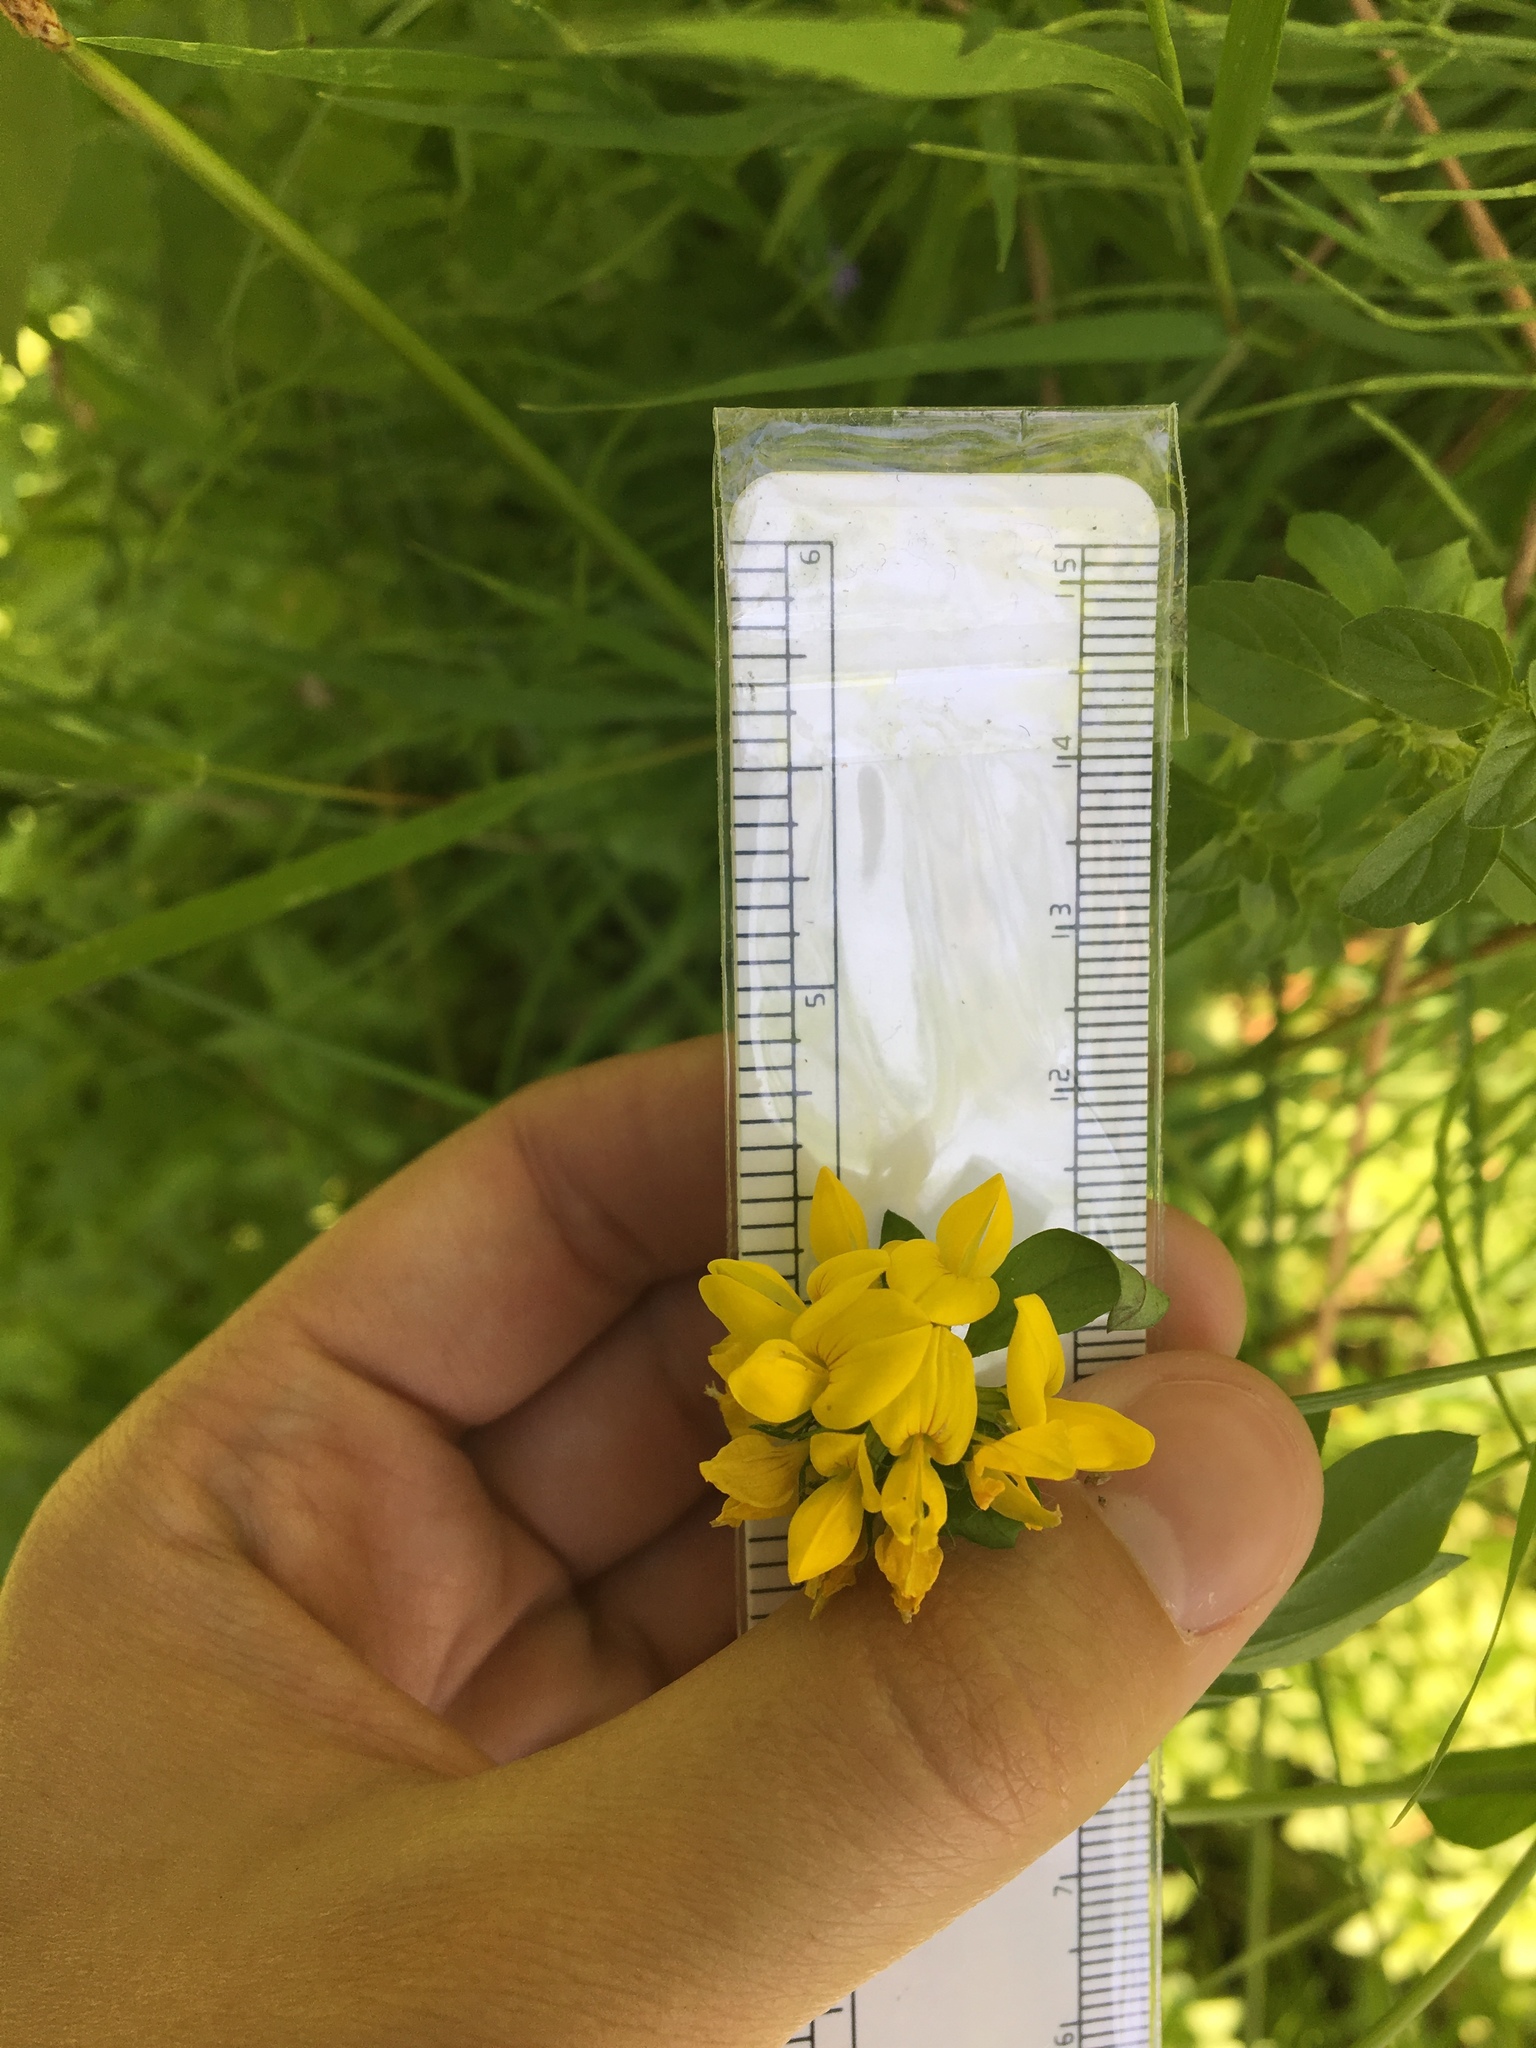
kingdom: Plantae
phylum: Tracheophyta
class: Magnoliopsida
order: Fabales
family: Fabaceae
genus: Lotus
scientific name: Lotus pedunculatus
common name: Greater birdsfoot-trefoil
